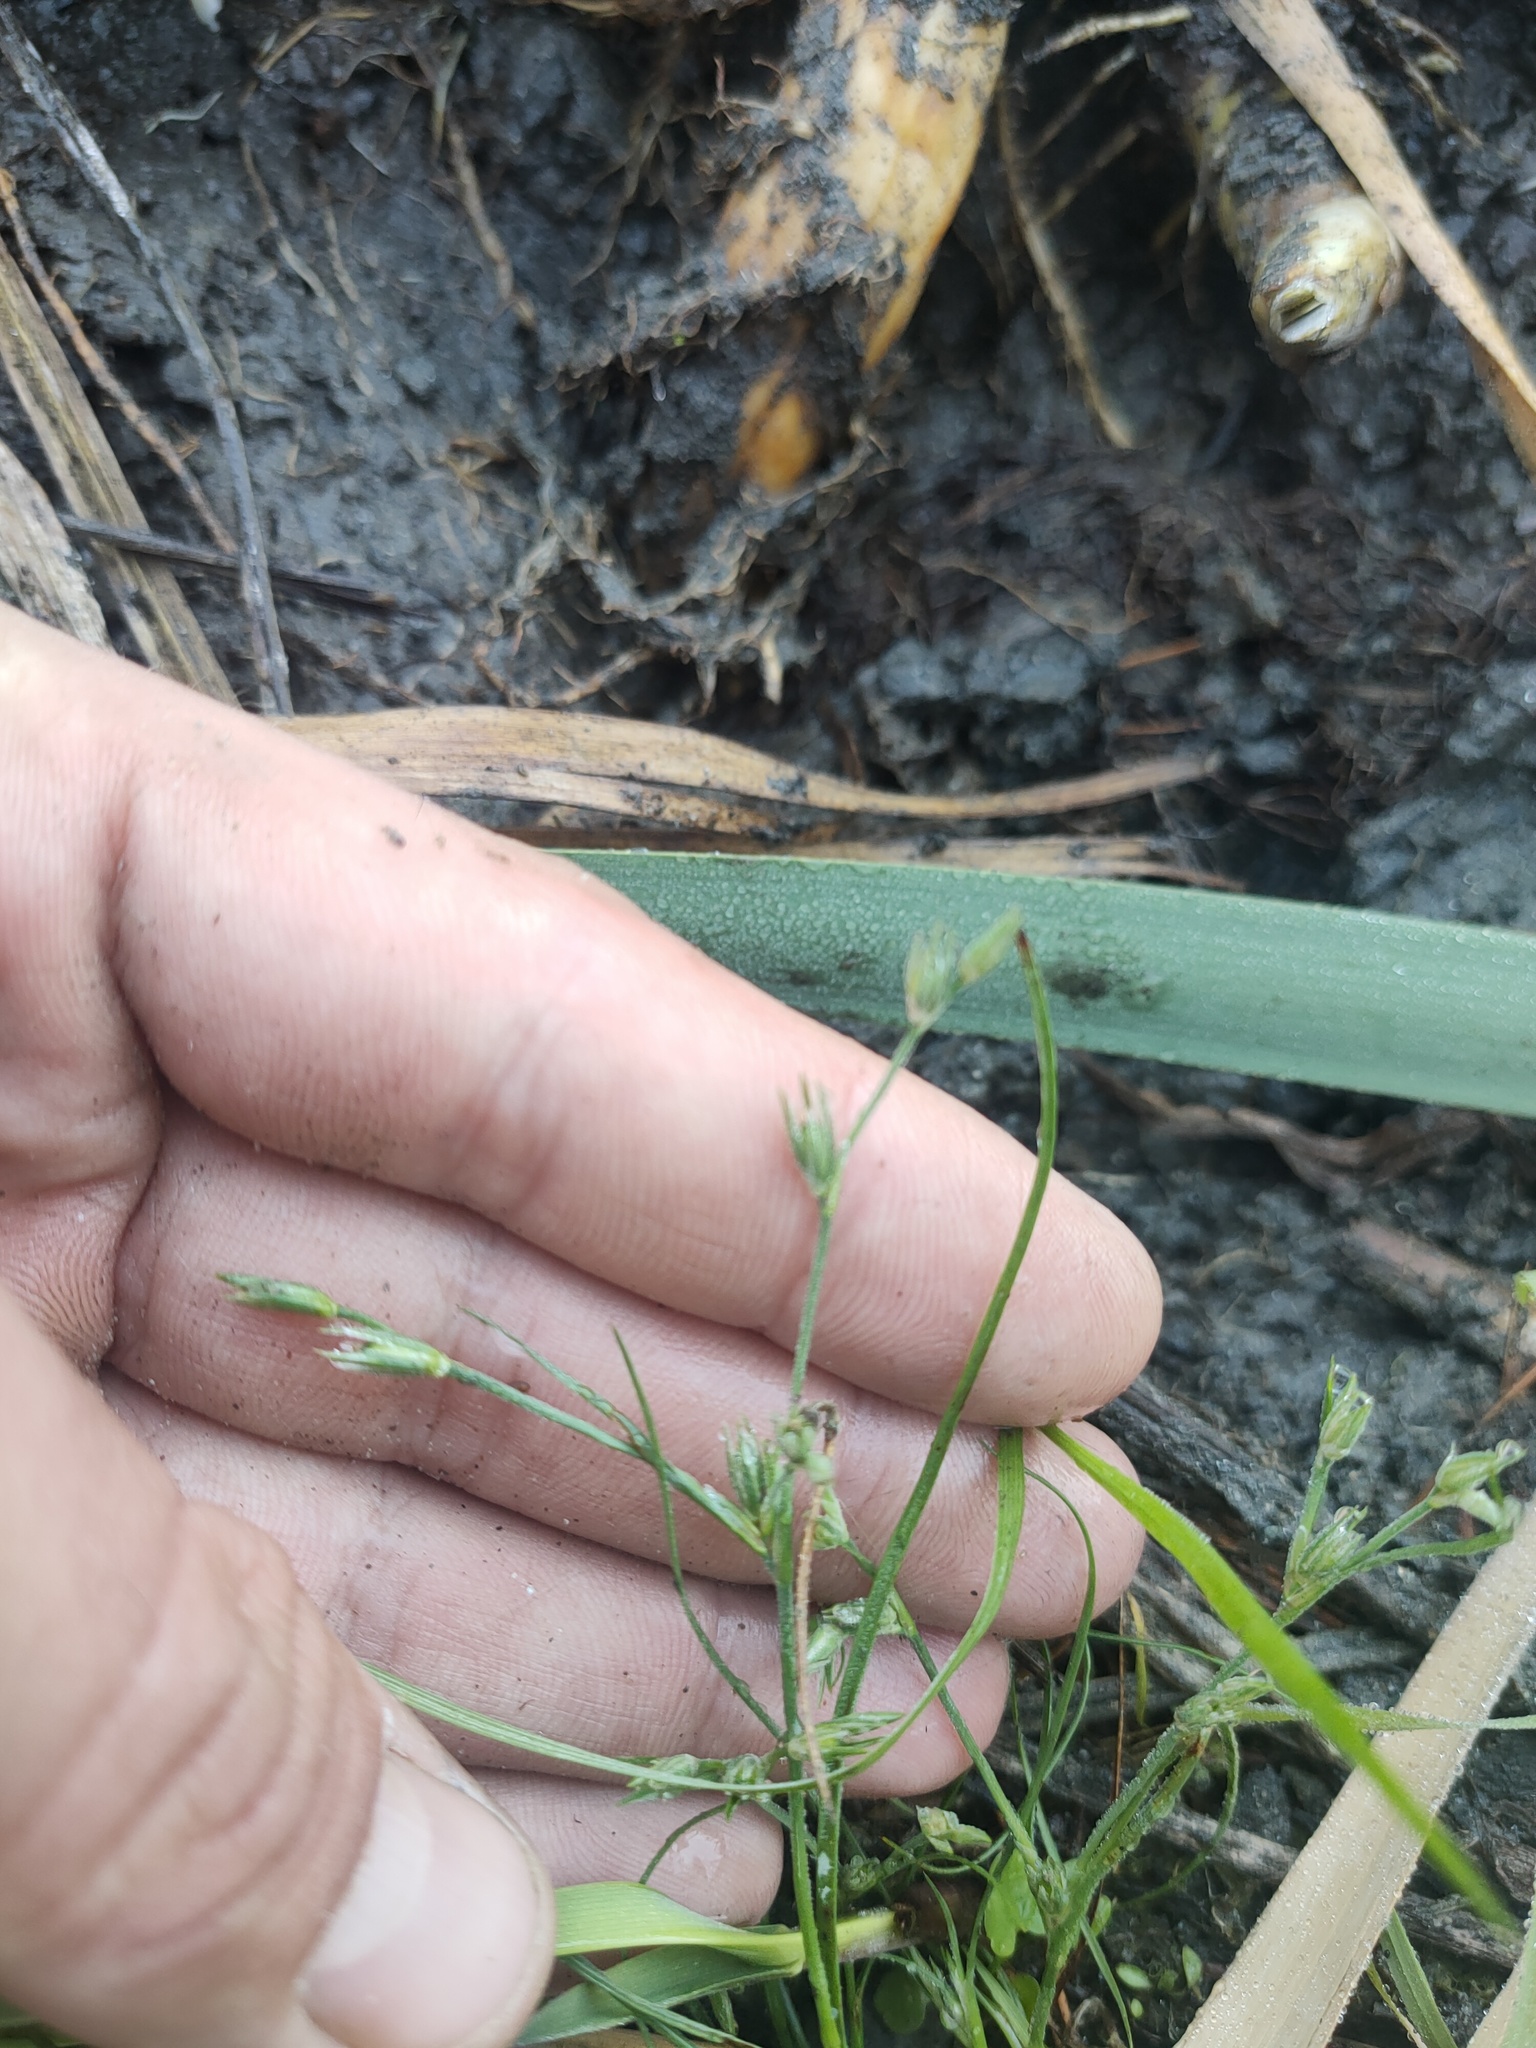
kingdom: Plantae
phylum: Tracheophyta
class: Liliopsida
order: Poales
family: Juncaceae
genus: Juncus
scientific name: Juncus bufonius
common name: Toad rush
